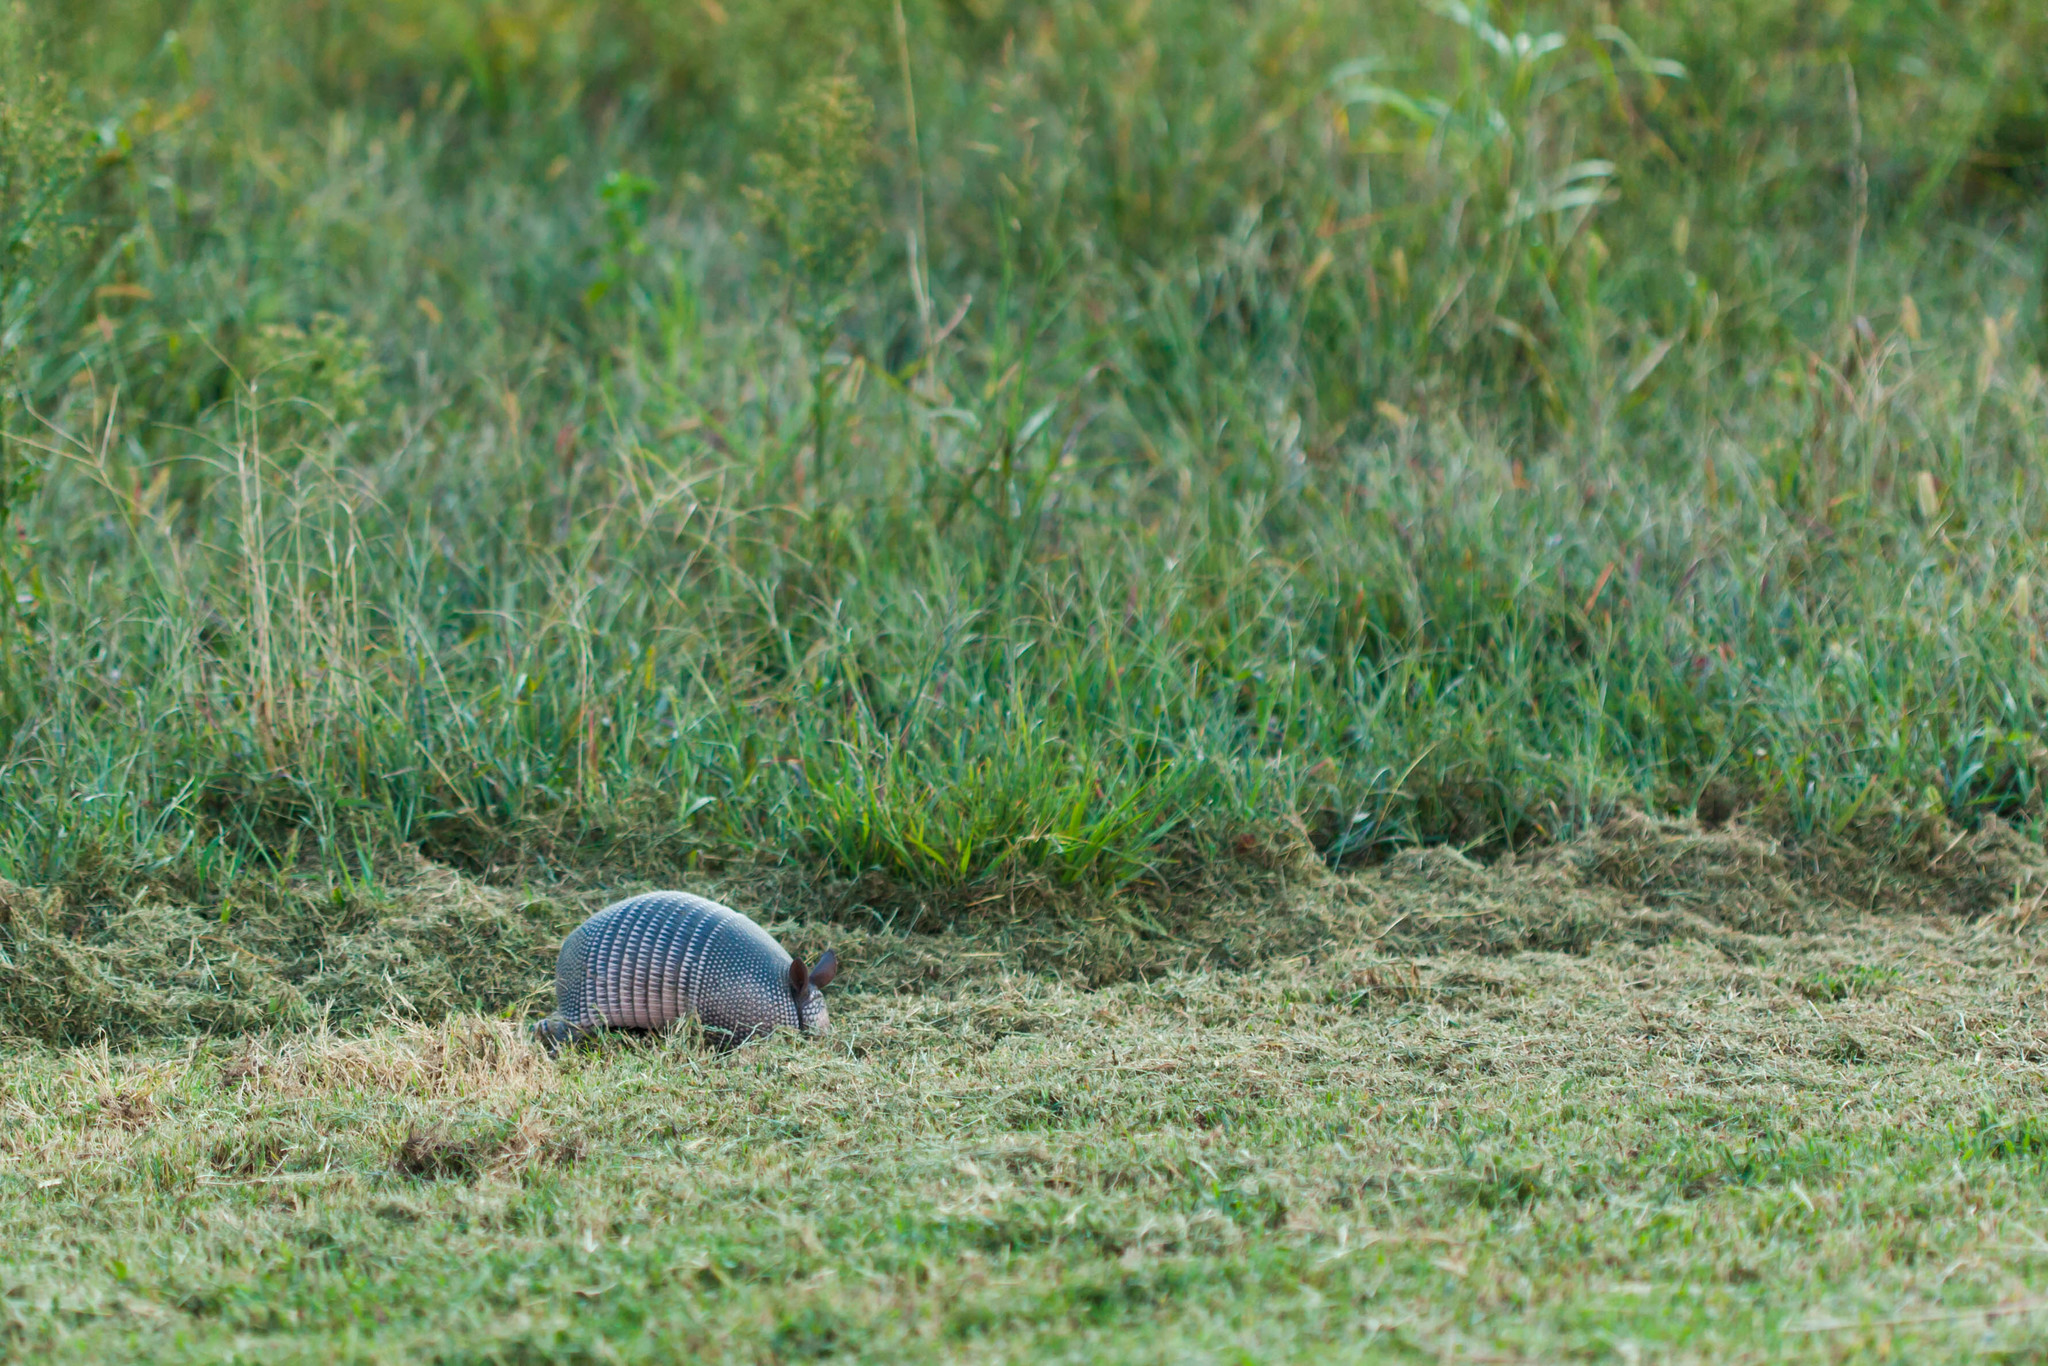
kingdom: Animalia
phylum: Chordata
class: Mammalia
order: Cingulata
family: Dasypodidae
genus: Dasypus
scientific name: Dasypus novemcinctus
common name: Nine-banded armadillo
